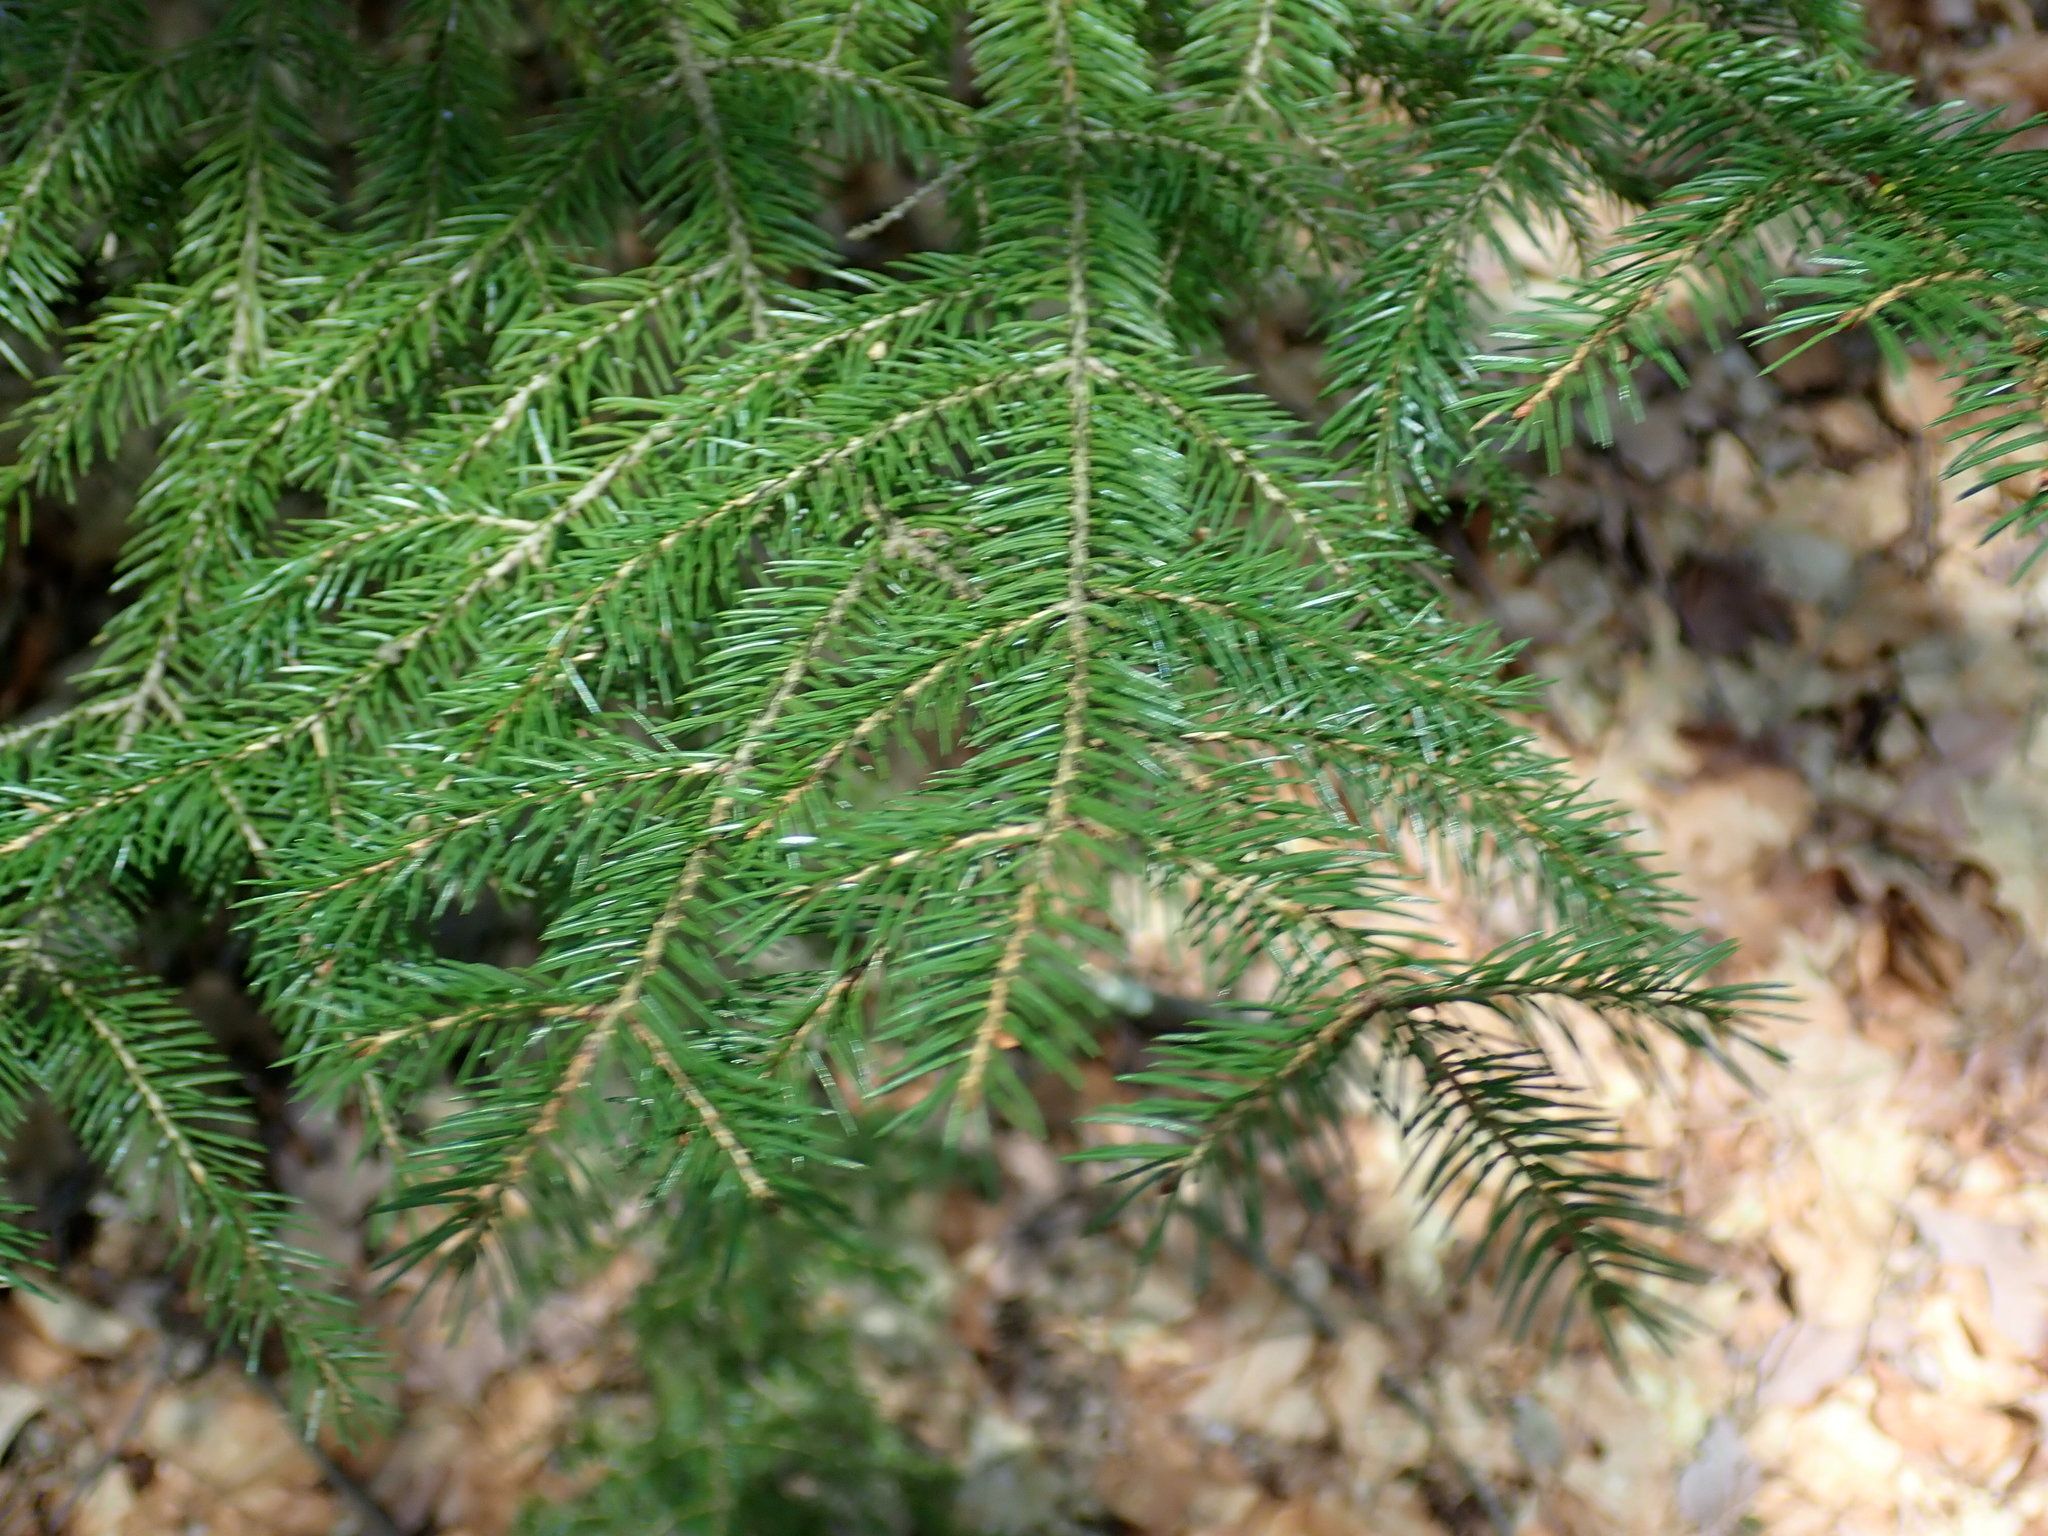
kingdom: Plantae
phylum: Tracheophyta
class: Pinopsida
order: Pinales
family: Pinaceae
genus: Picea
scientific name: Picea rubens
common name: Red spruce
